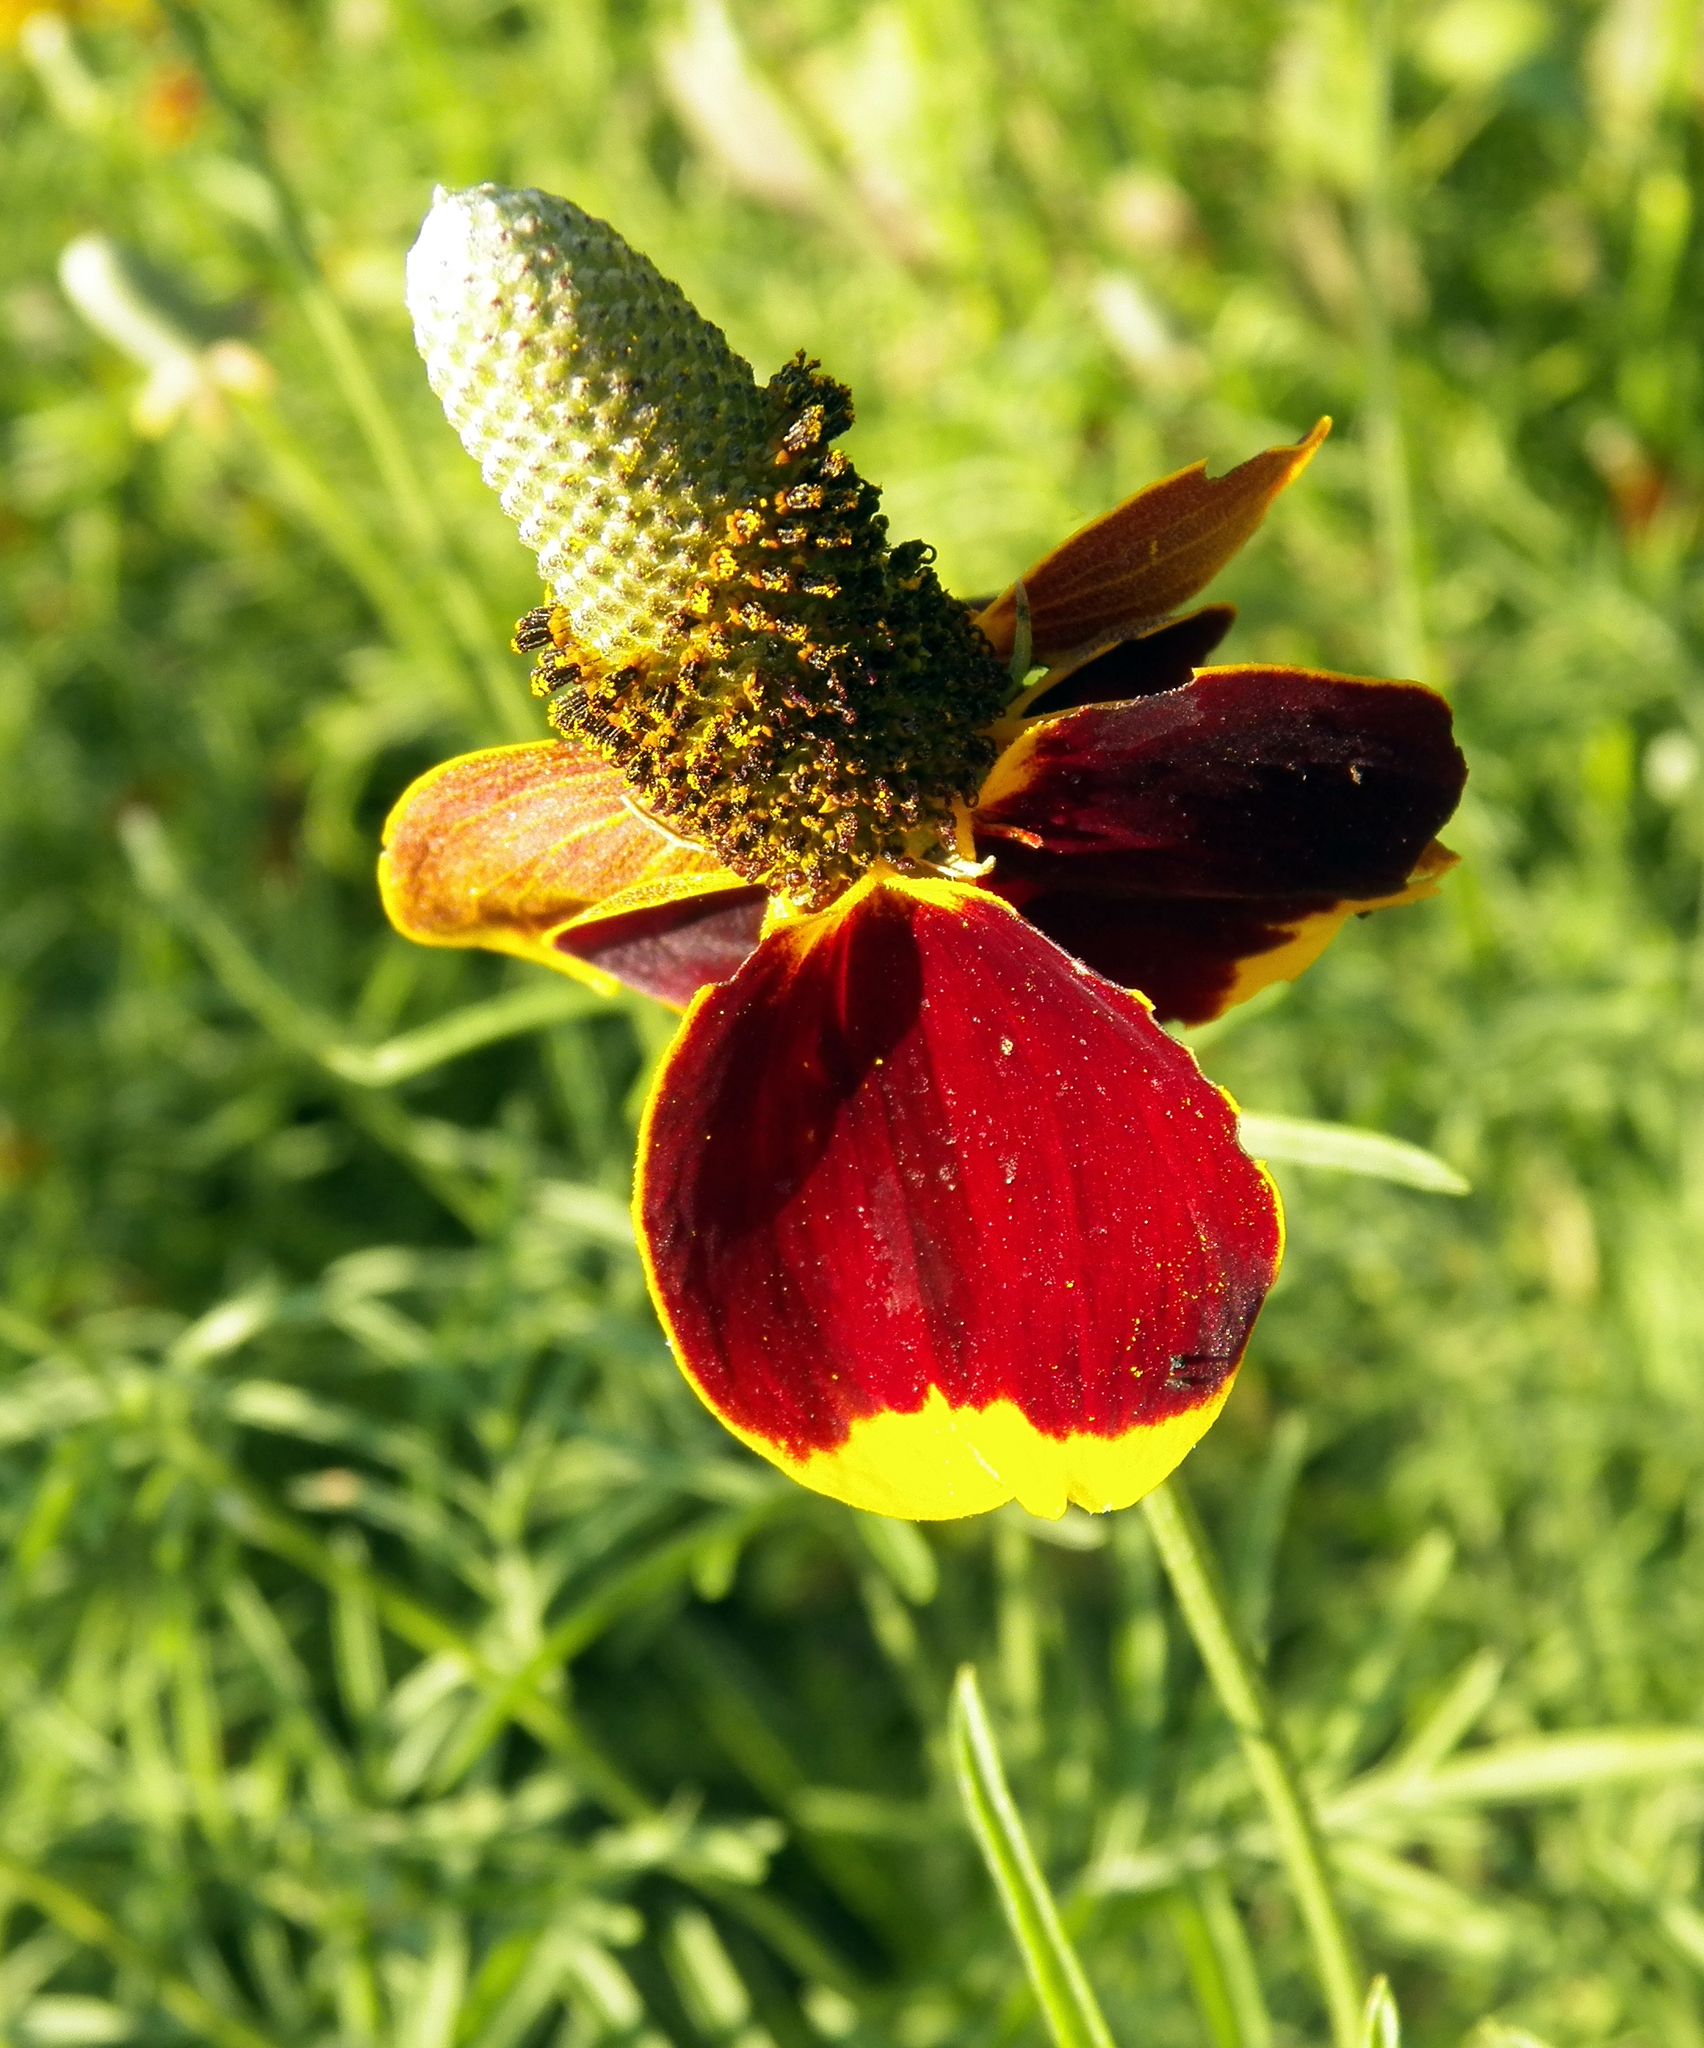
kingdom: Plantae
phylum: Tracheophyta
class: Magnoliopsida
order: Asterales
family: Asteraceae
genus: Ratibida
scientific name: Ratibida columnifera
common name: Prairie coneflower
